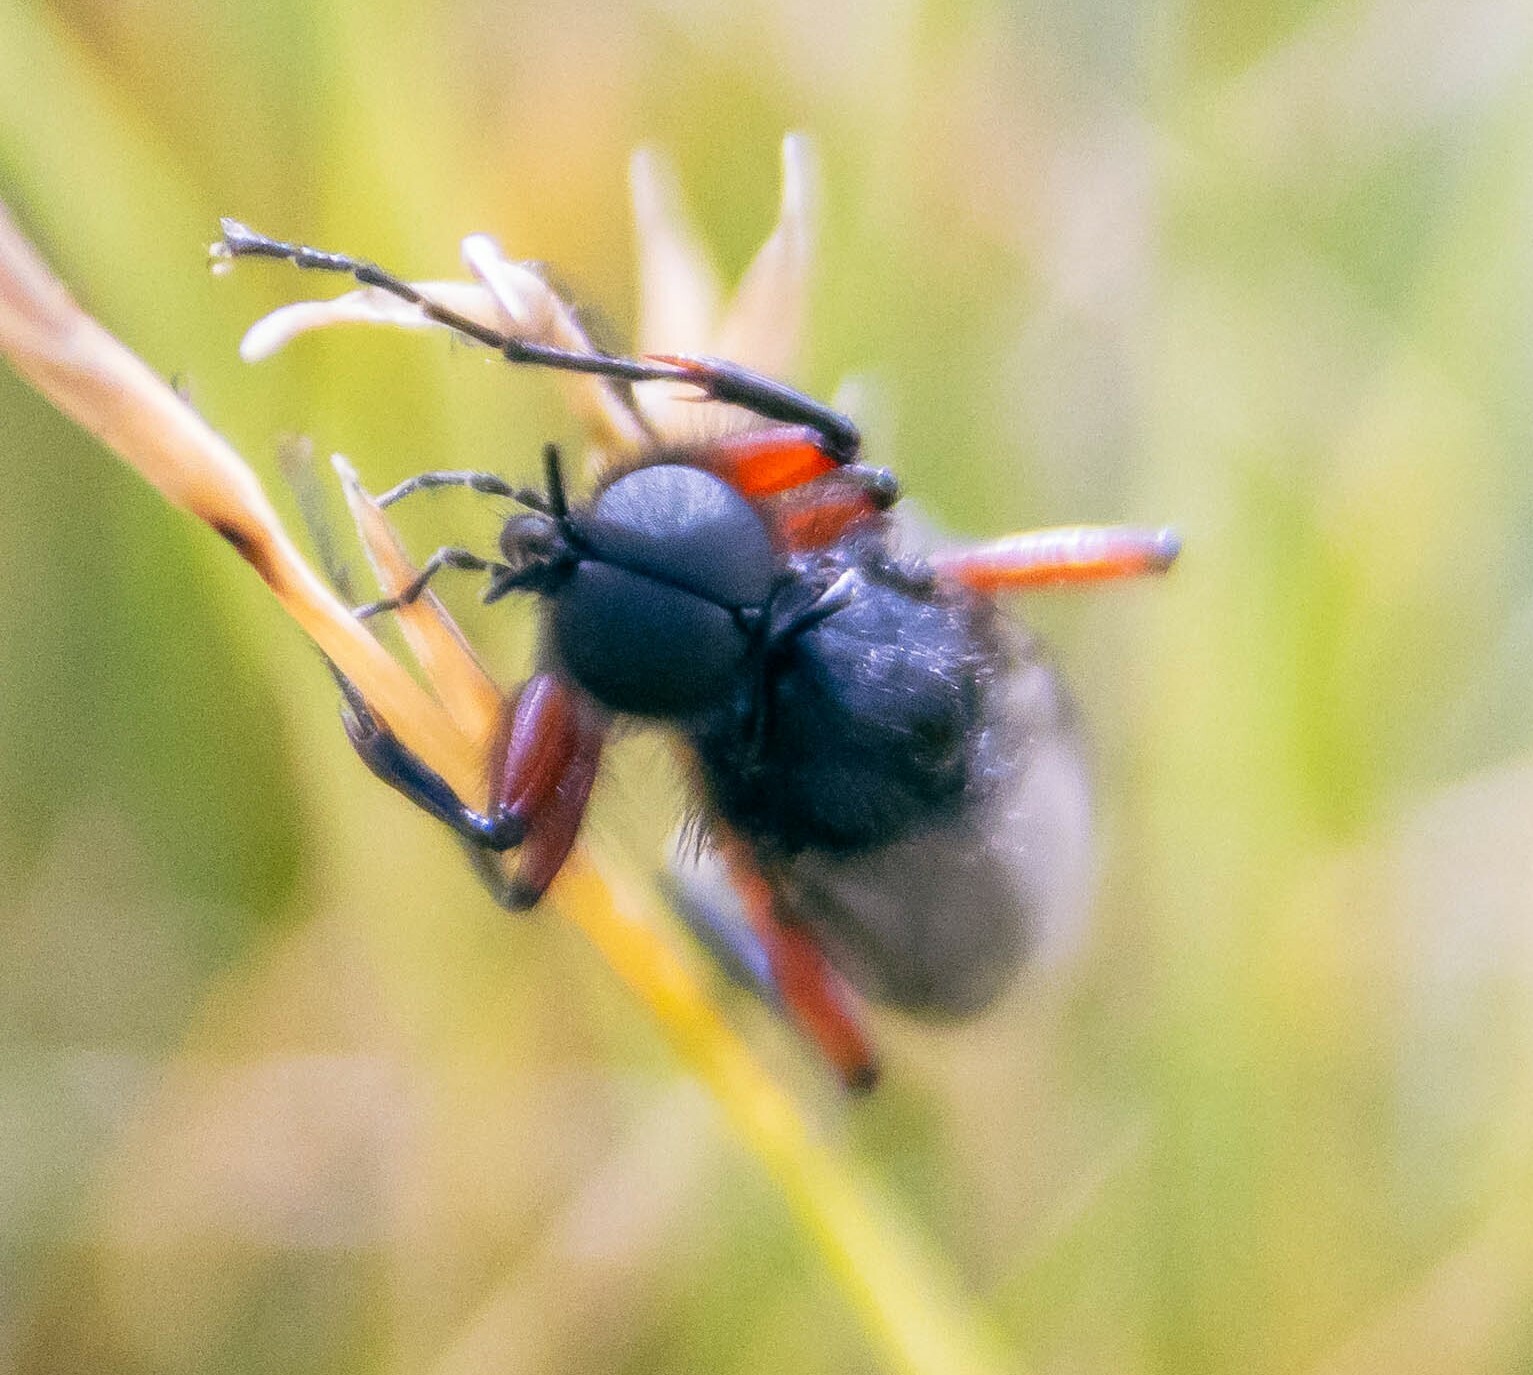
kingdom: Animalia
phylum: Arthropoda
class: Insecta
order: Diptera
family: Bibionidae
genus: Bibio
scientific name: Bibio pomonae
